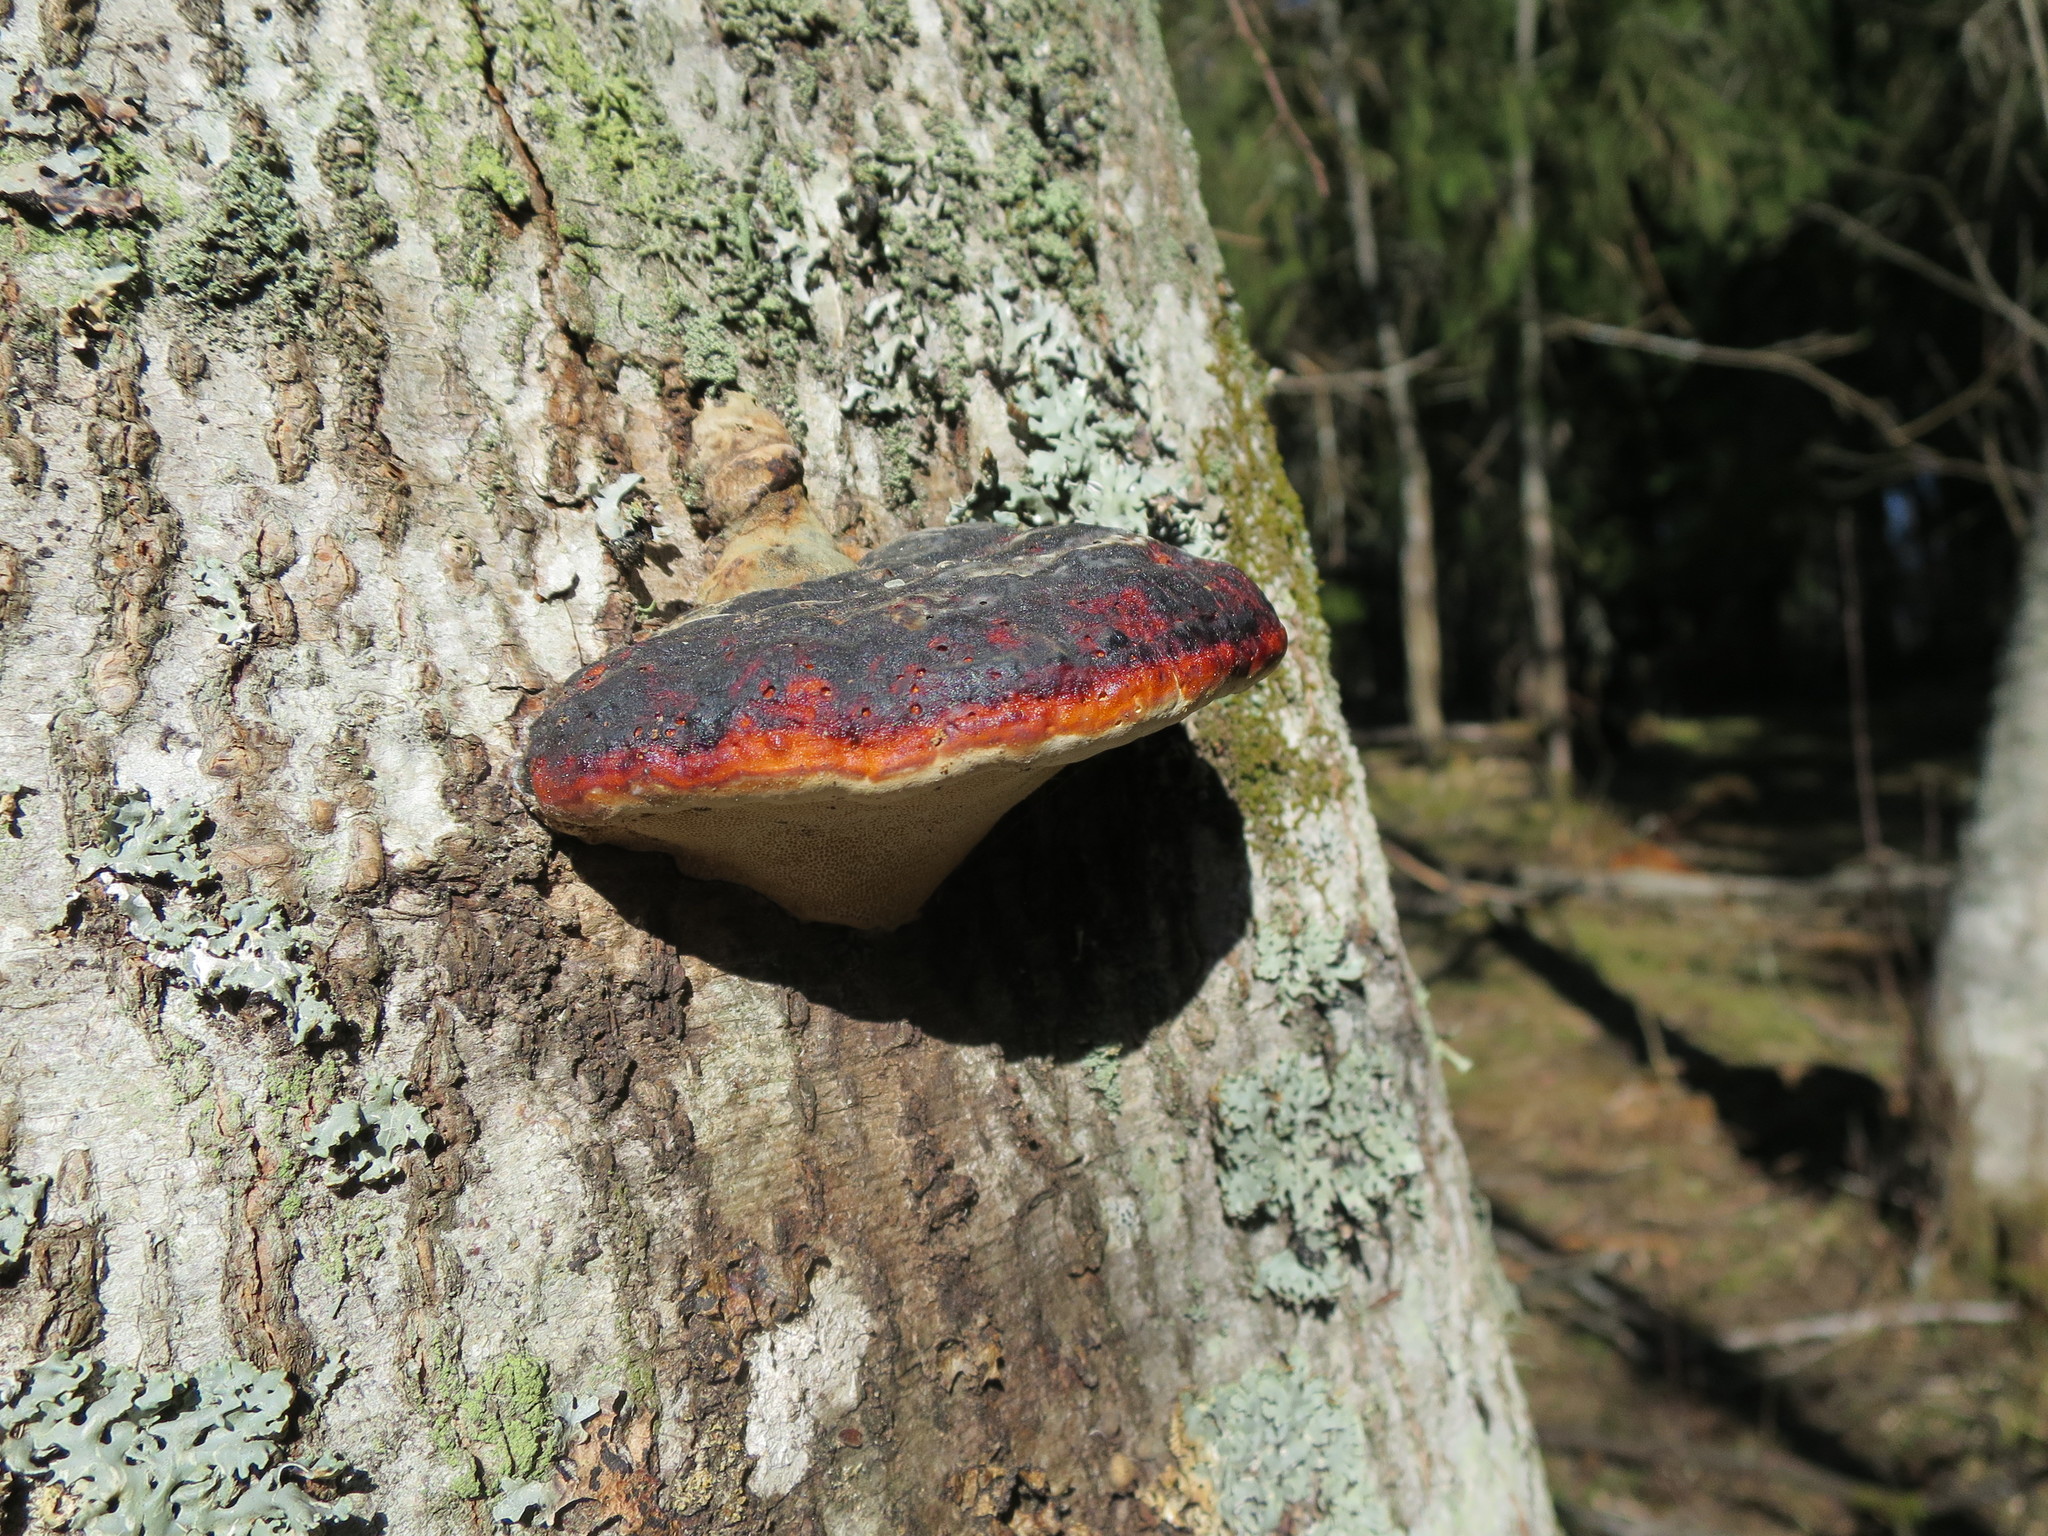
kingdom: Fungi
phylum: Basidiomycota
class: Agaricomycetes
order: Polyporales
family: Fomitopsidaceae
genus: Fomitopsis
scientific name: Fomitopsis pinicola
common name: Red-belted bracket
